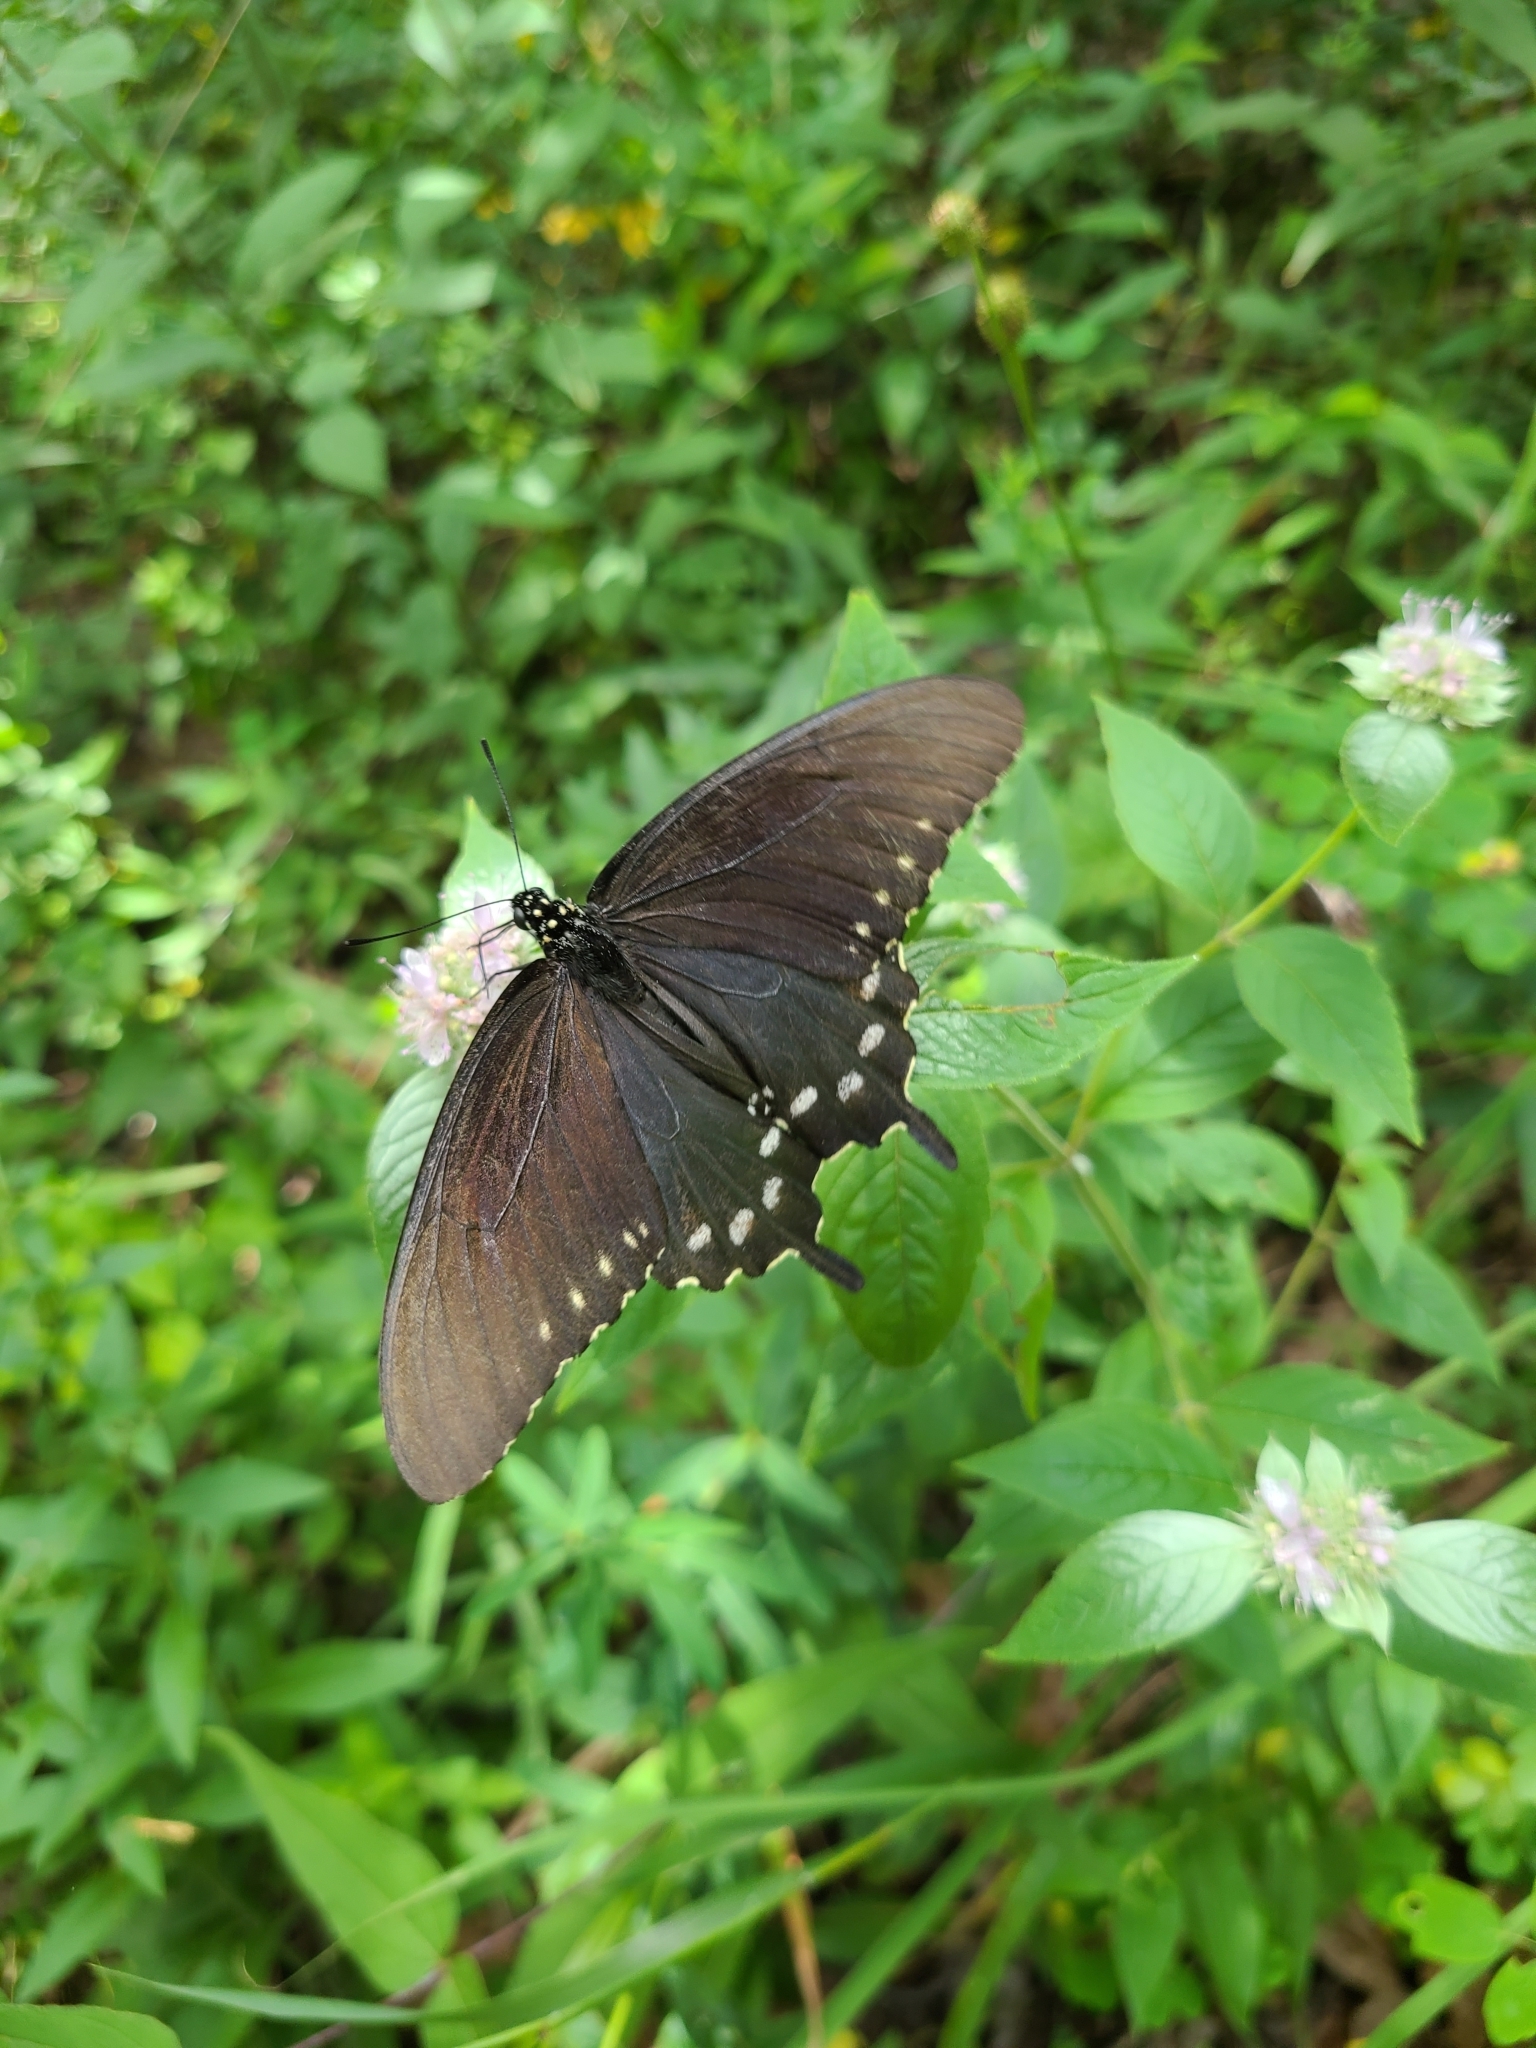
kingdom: Animalia
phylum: Arthropoda
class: Insecta
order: Lepidoptera
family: Papilionidae
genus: Battus
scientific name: Battus philenor
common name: Pipevine swallowtail
